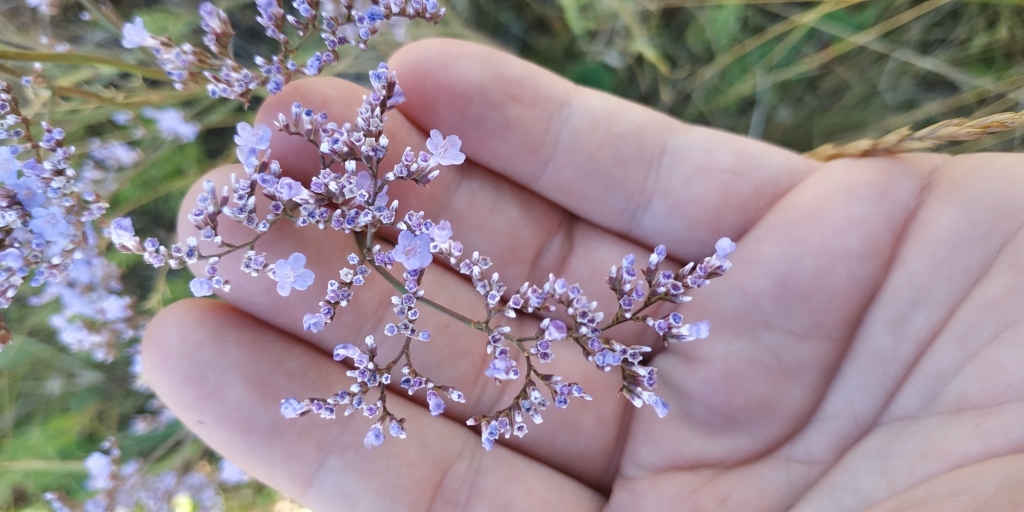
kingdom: Plantae
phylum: Tracheophyta
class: Magnoliopsida
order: Caryophyllales
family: Plumbaginaceae
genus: Limonium
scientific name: Limonium gmelini
